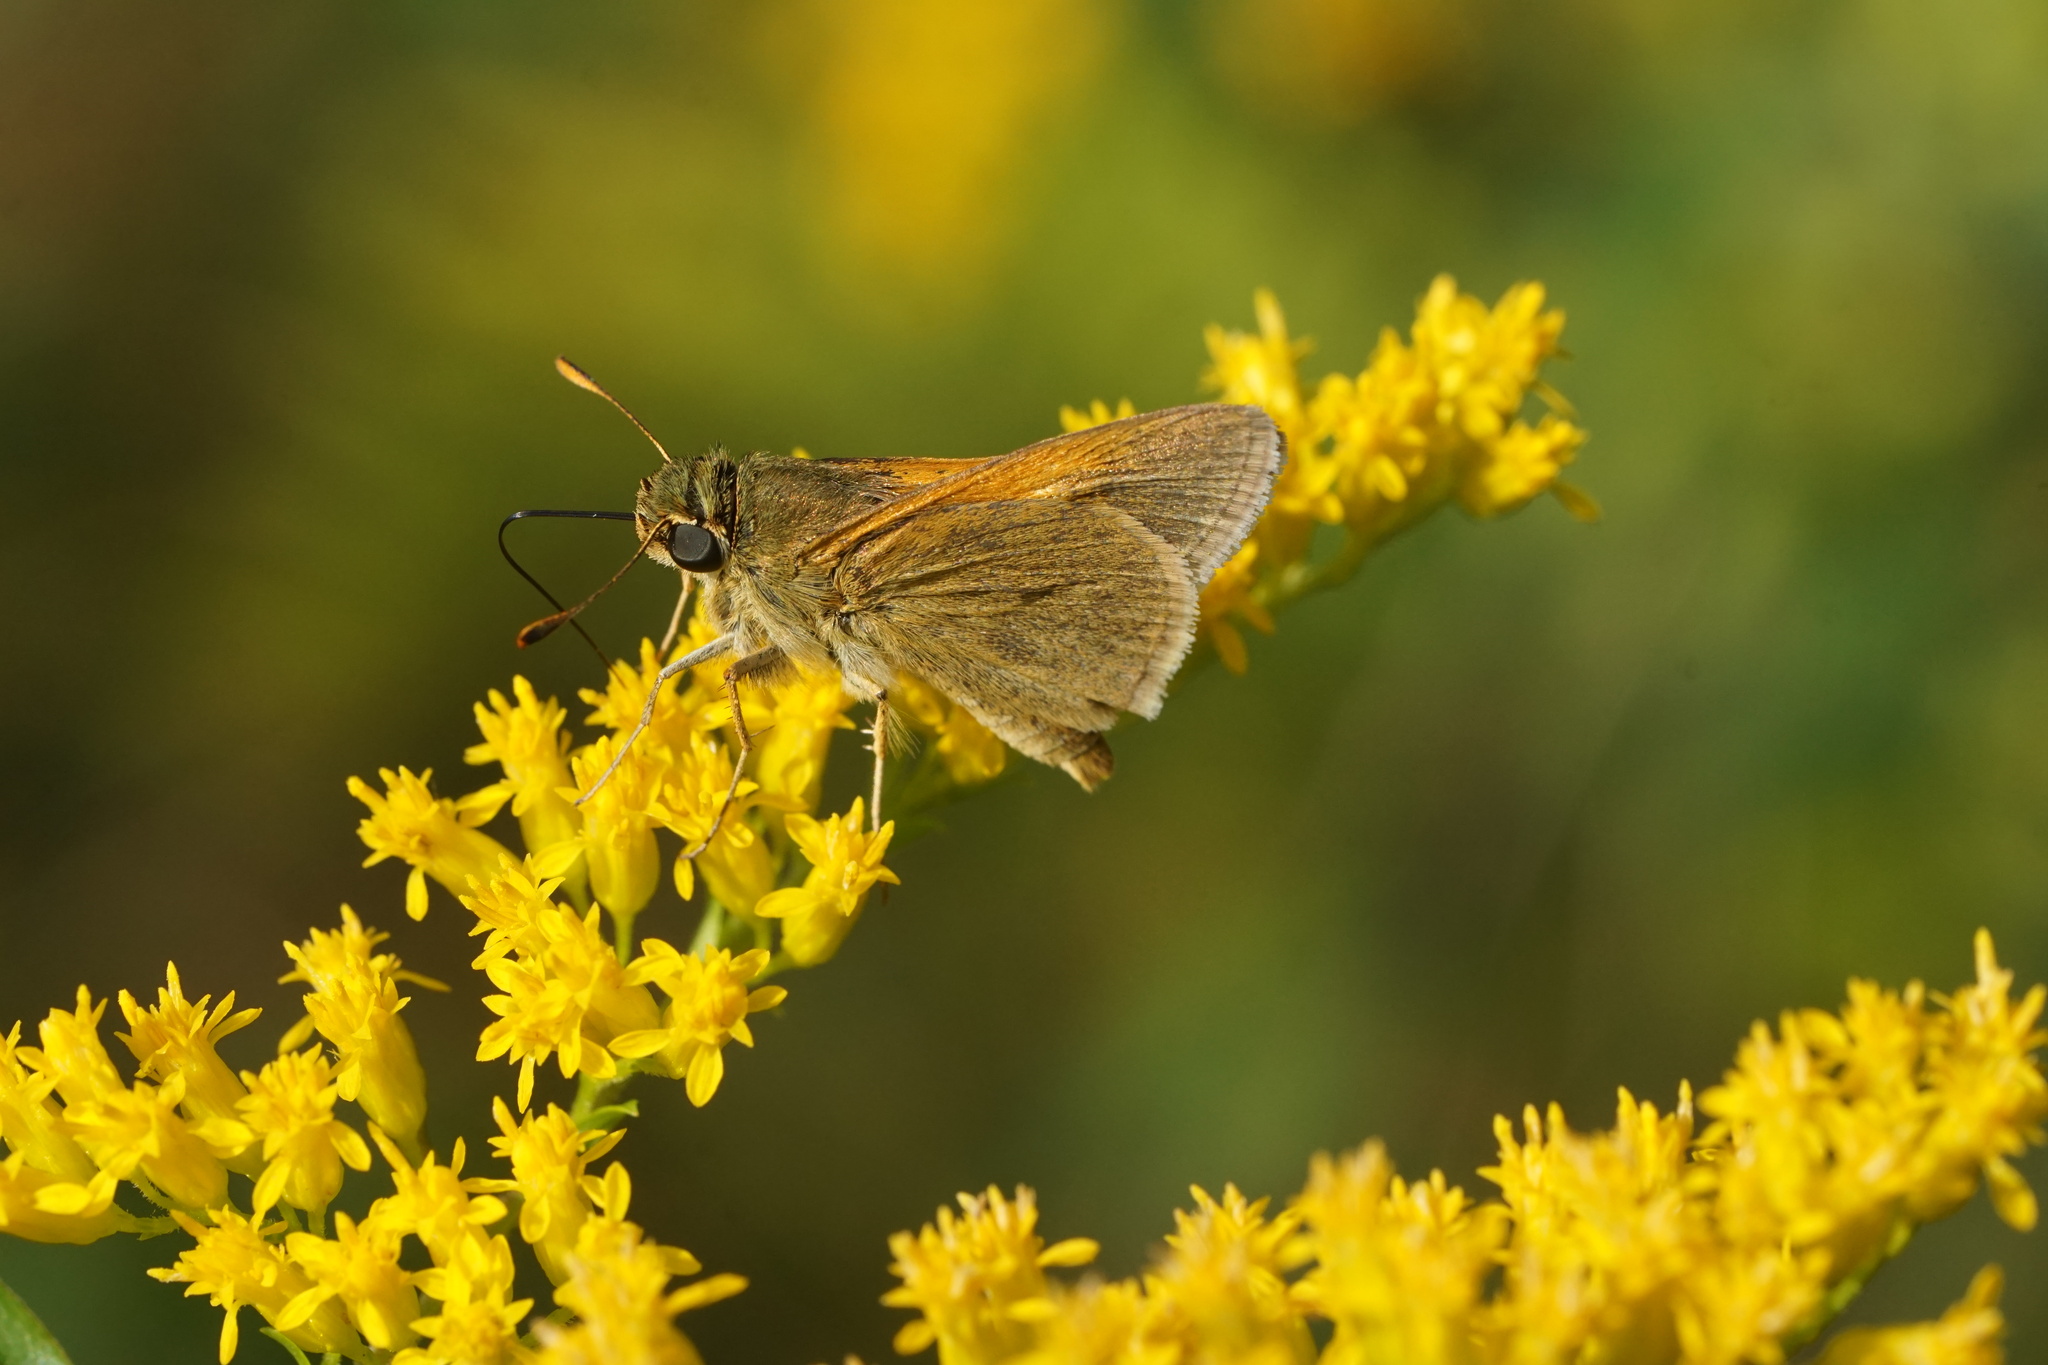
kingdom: Animalia
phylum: Arthropoda
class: Insecta
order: Lepidoptera
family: Hesperiidae
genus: Polites
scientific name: Polites themistocles
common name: Tawny-edged skipper
